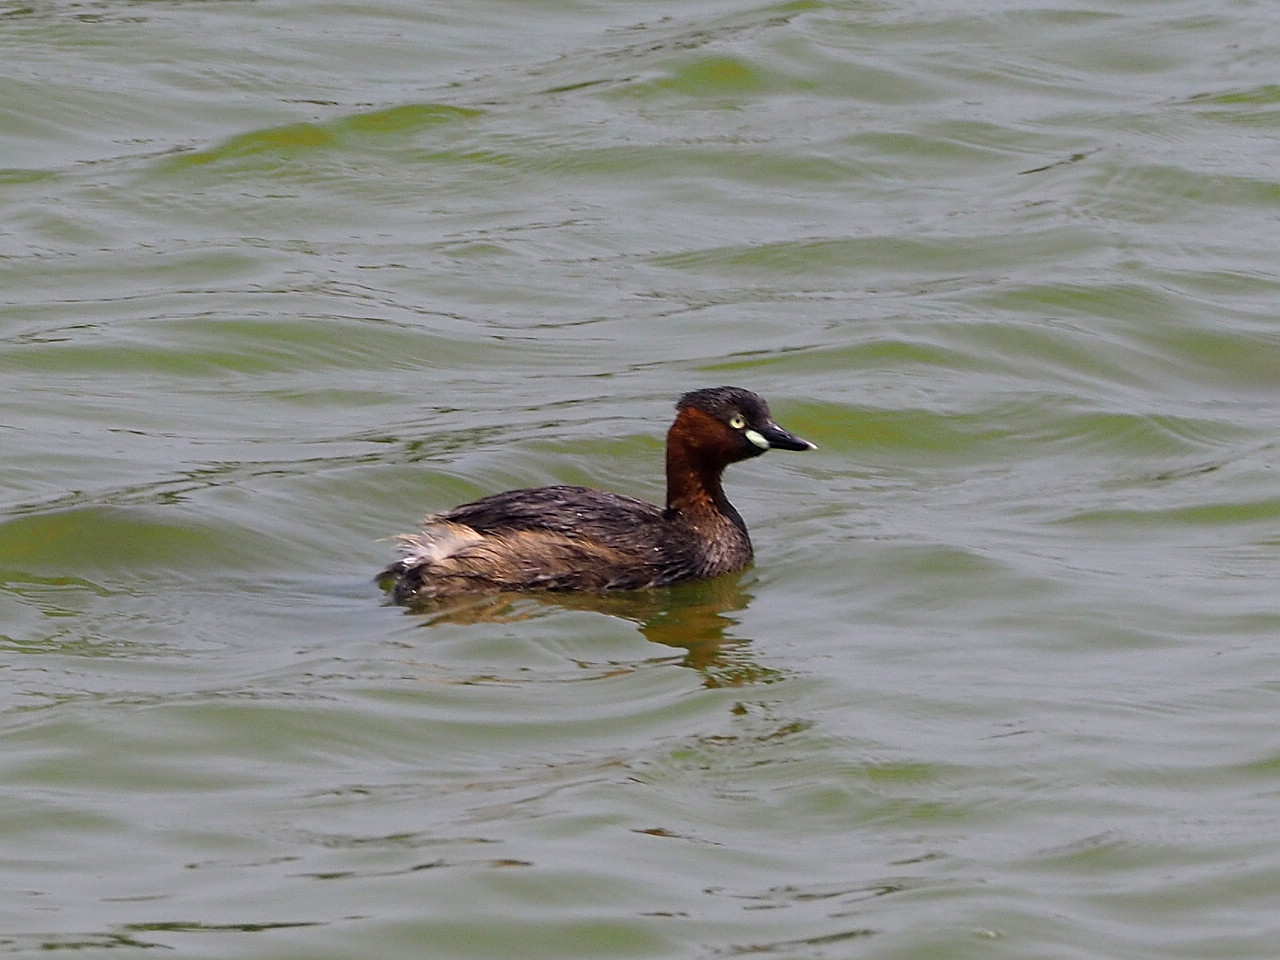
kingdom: Animalia
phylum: Chordata
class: Aves
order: Podicipediformes
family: Podicipedidae
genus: Tachybaptus
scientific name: Tachybaptus ruficollis
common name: Little grebe
